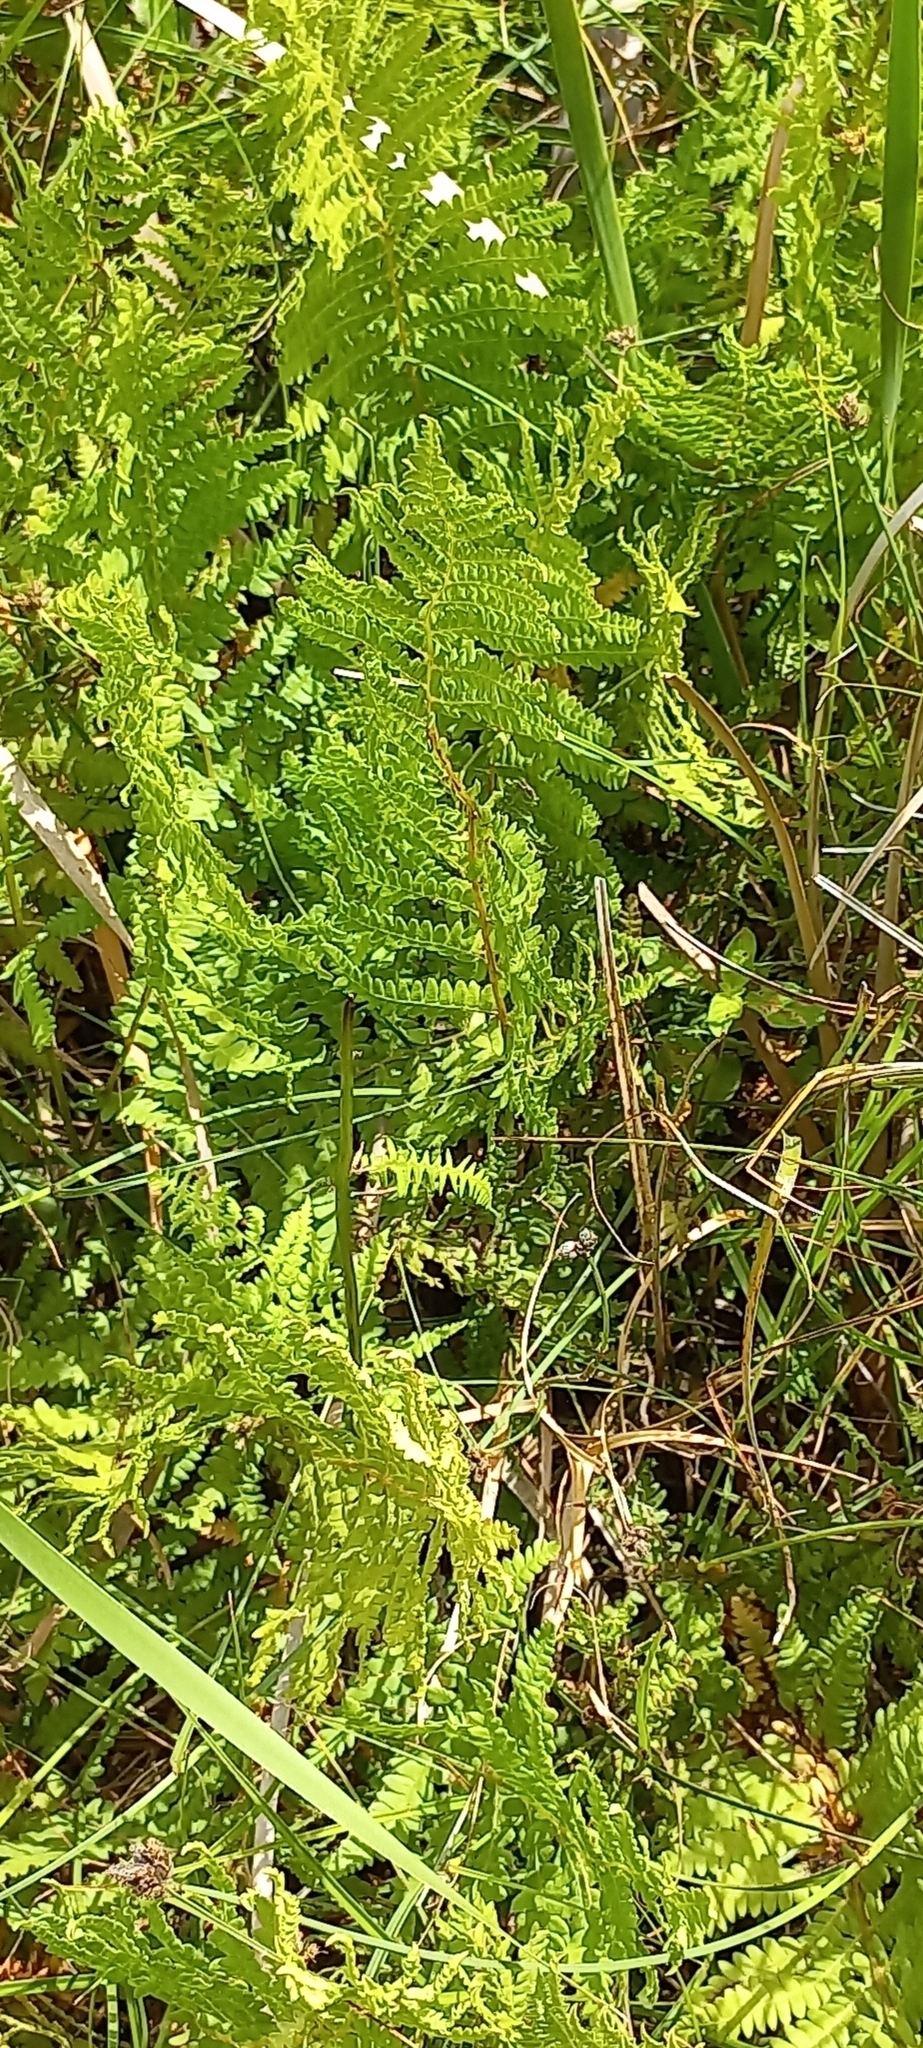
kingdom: Plantae
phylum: Tracheophyta
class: Polypodiopsida
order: Polypodiales
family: Thelypteridaceae
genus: Thelypteris
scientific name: Thelypteris confluens
